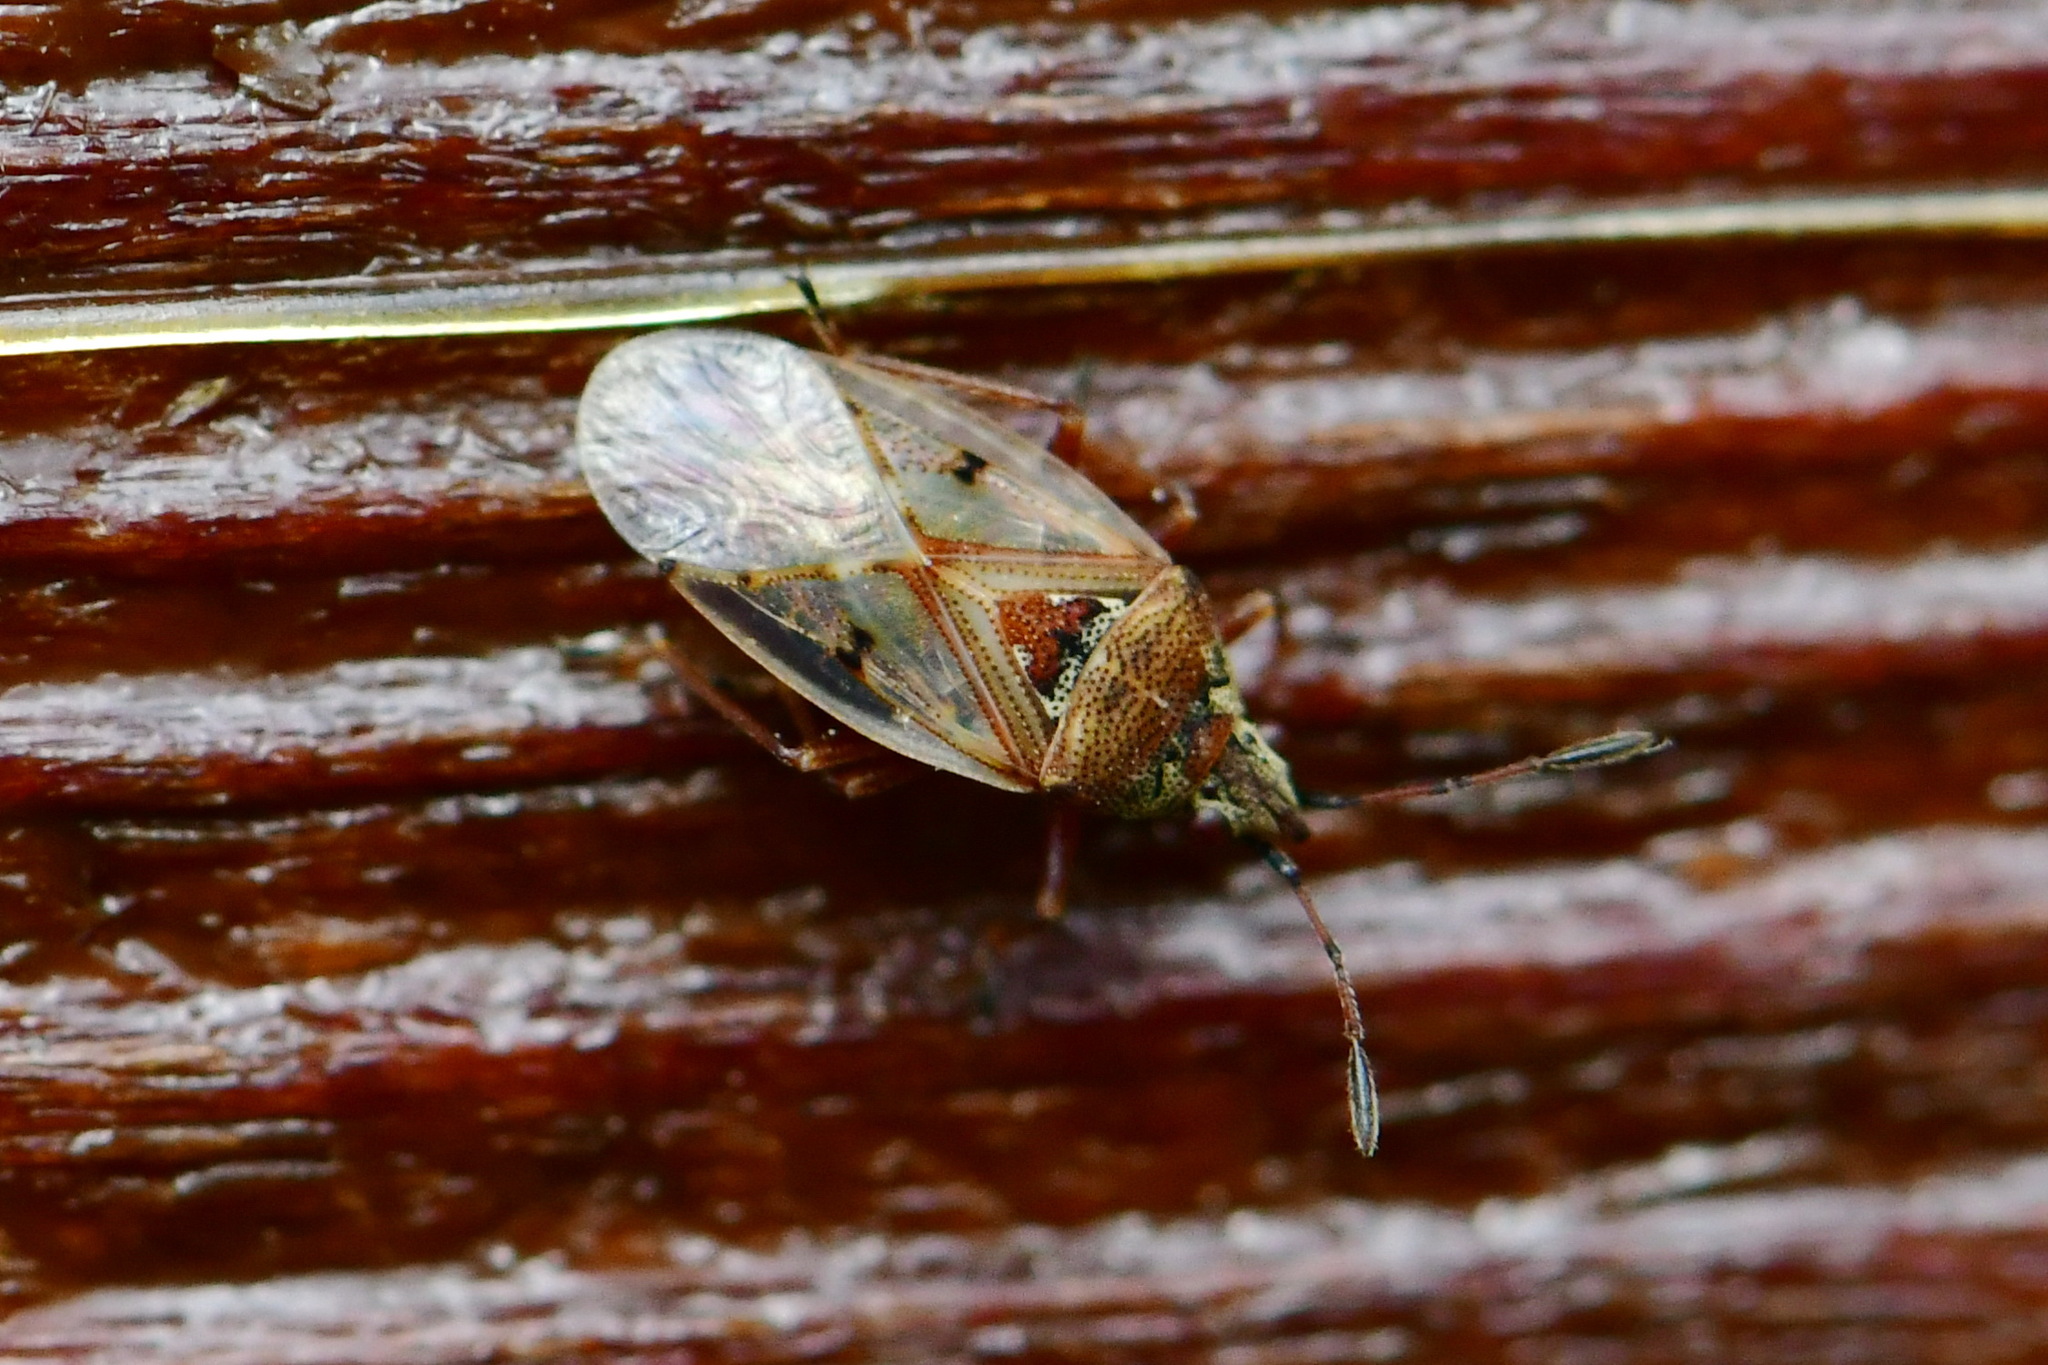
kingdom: Animalia
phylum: Arthropoda
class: Insecta
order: Hemiptera
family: Lygaeidae
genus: Kleidocerys
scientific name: Kleidocerys resedae
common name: Birch catkin bug
